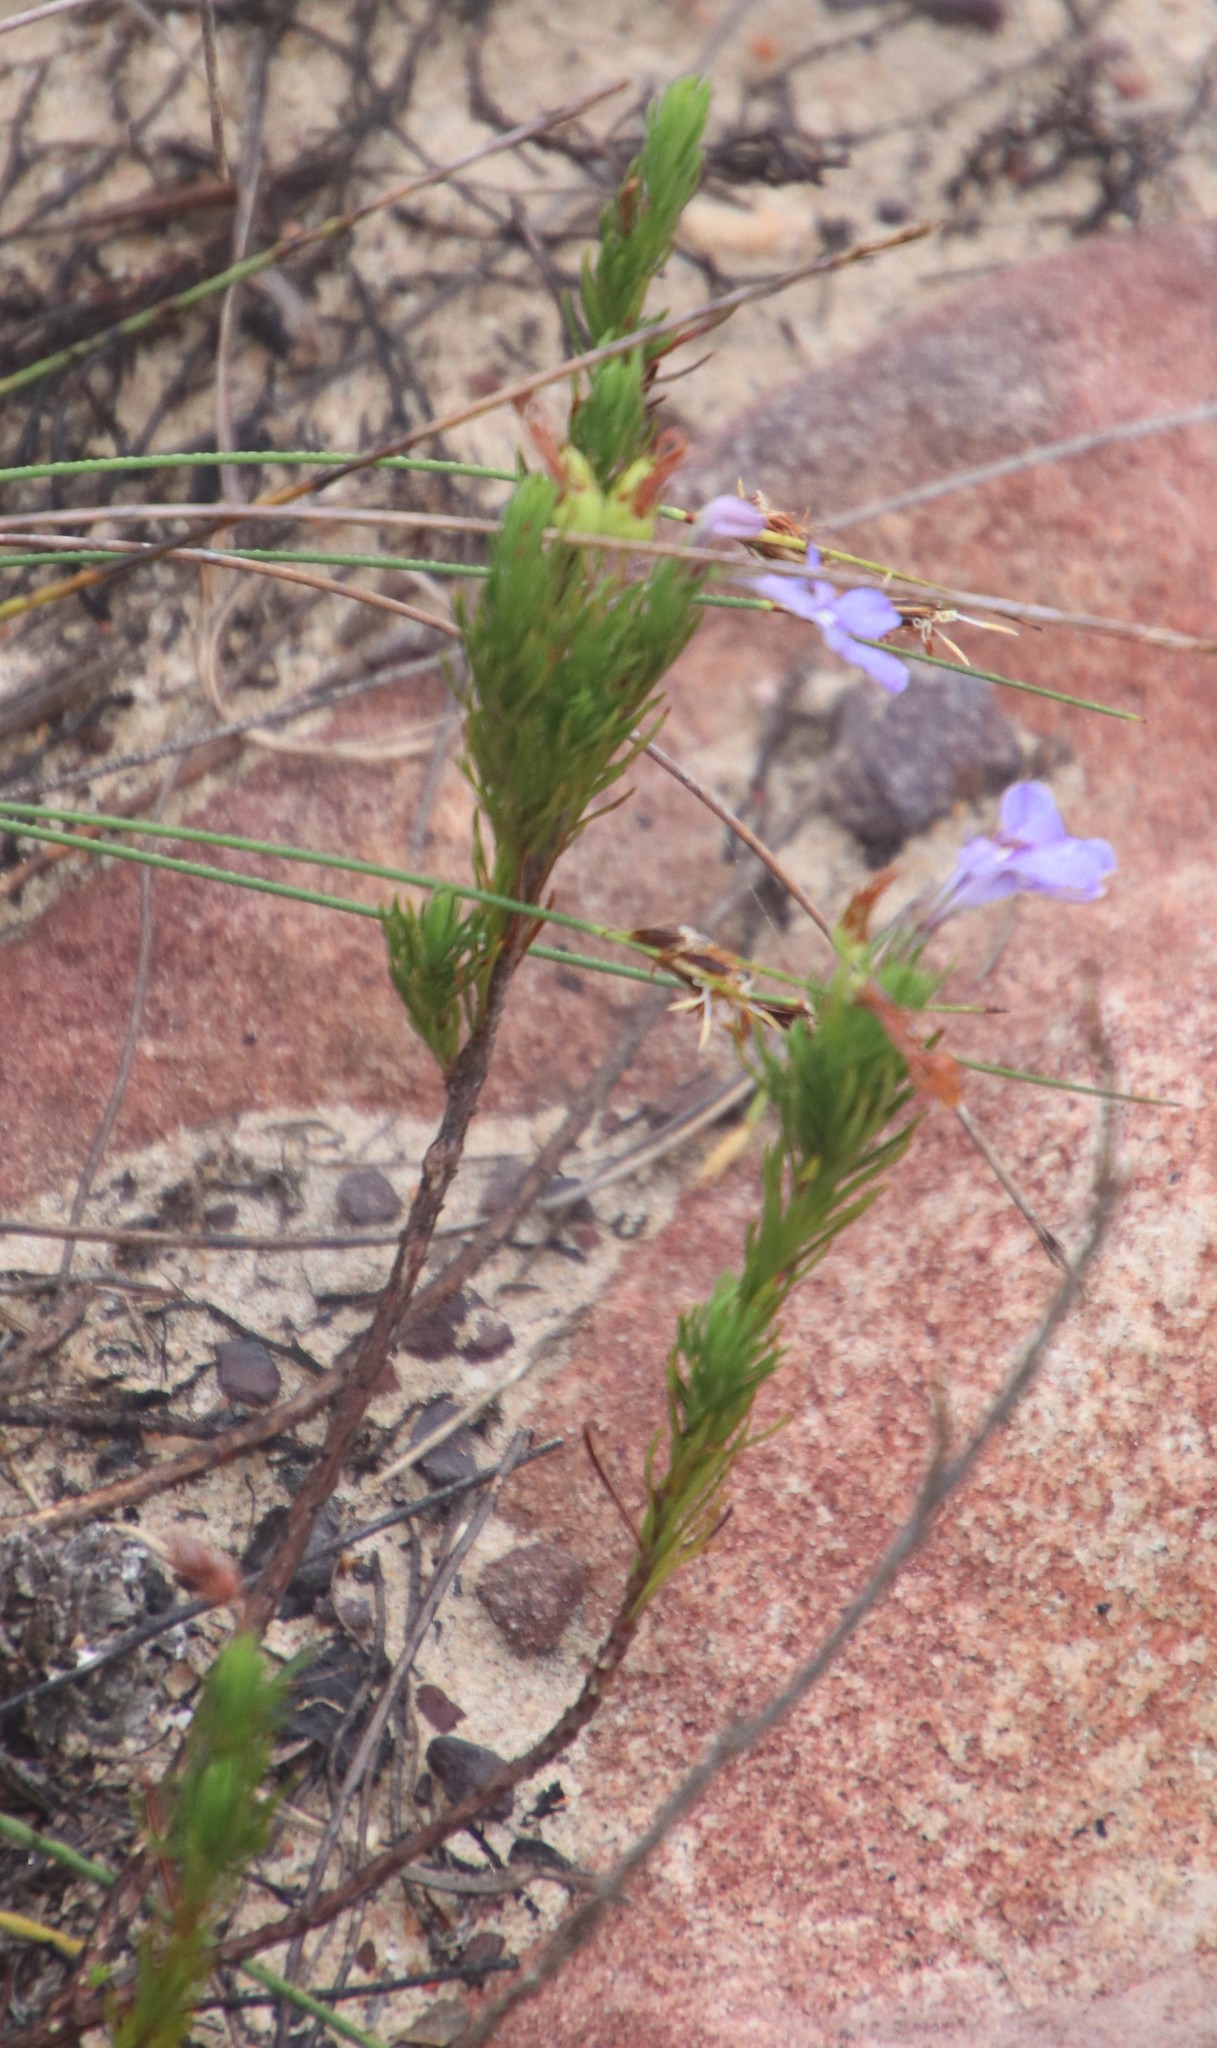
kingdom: Plantae
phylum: Tracheophyta
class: Magnoliopsida
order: Asterales
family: Campanulaceae
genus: Lobelia
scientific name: Lobelia pinifolia
